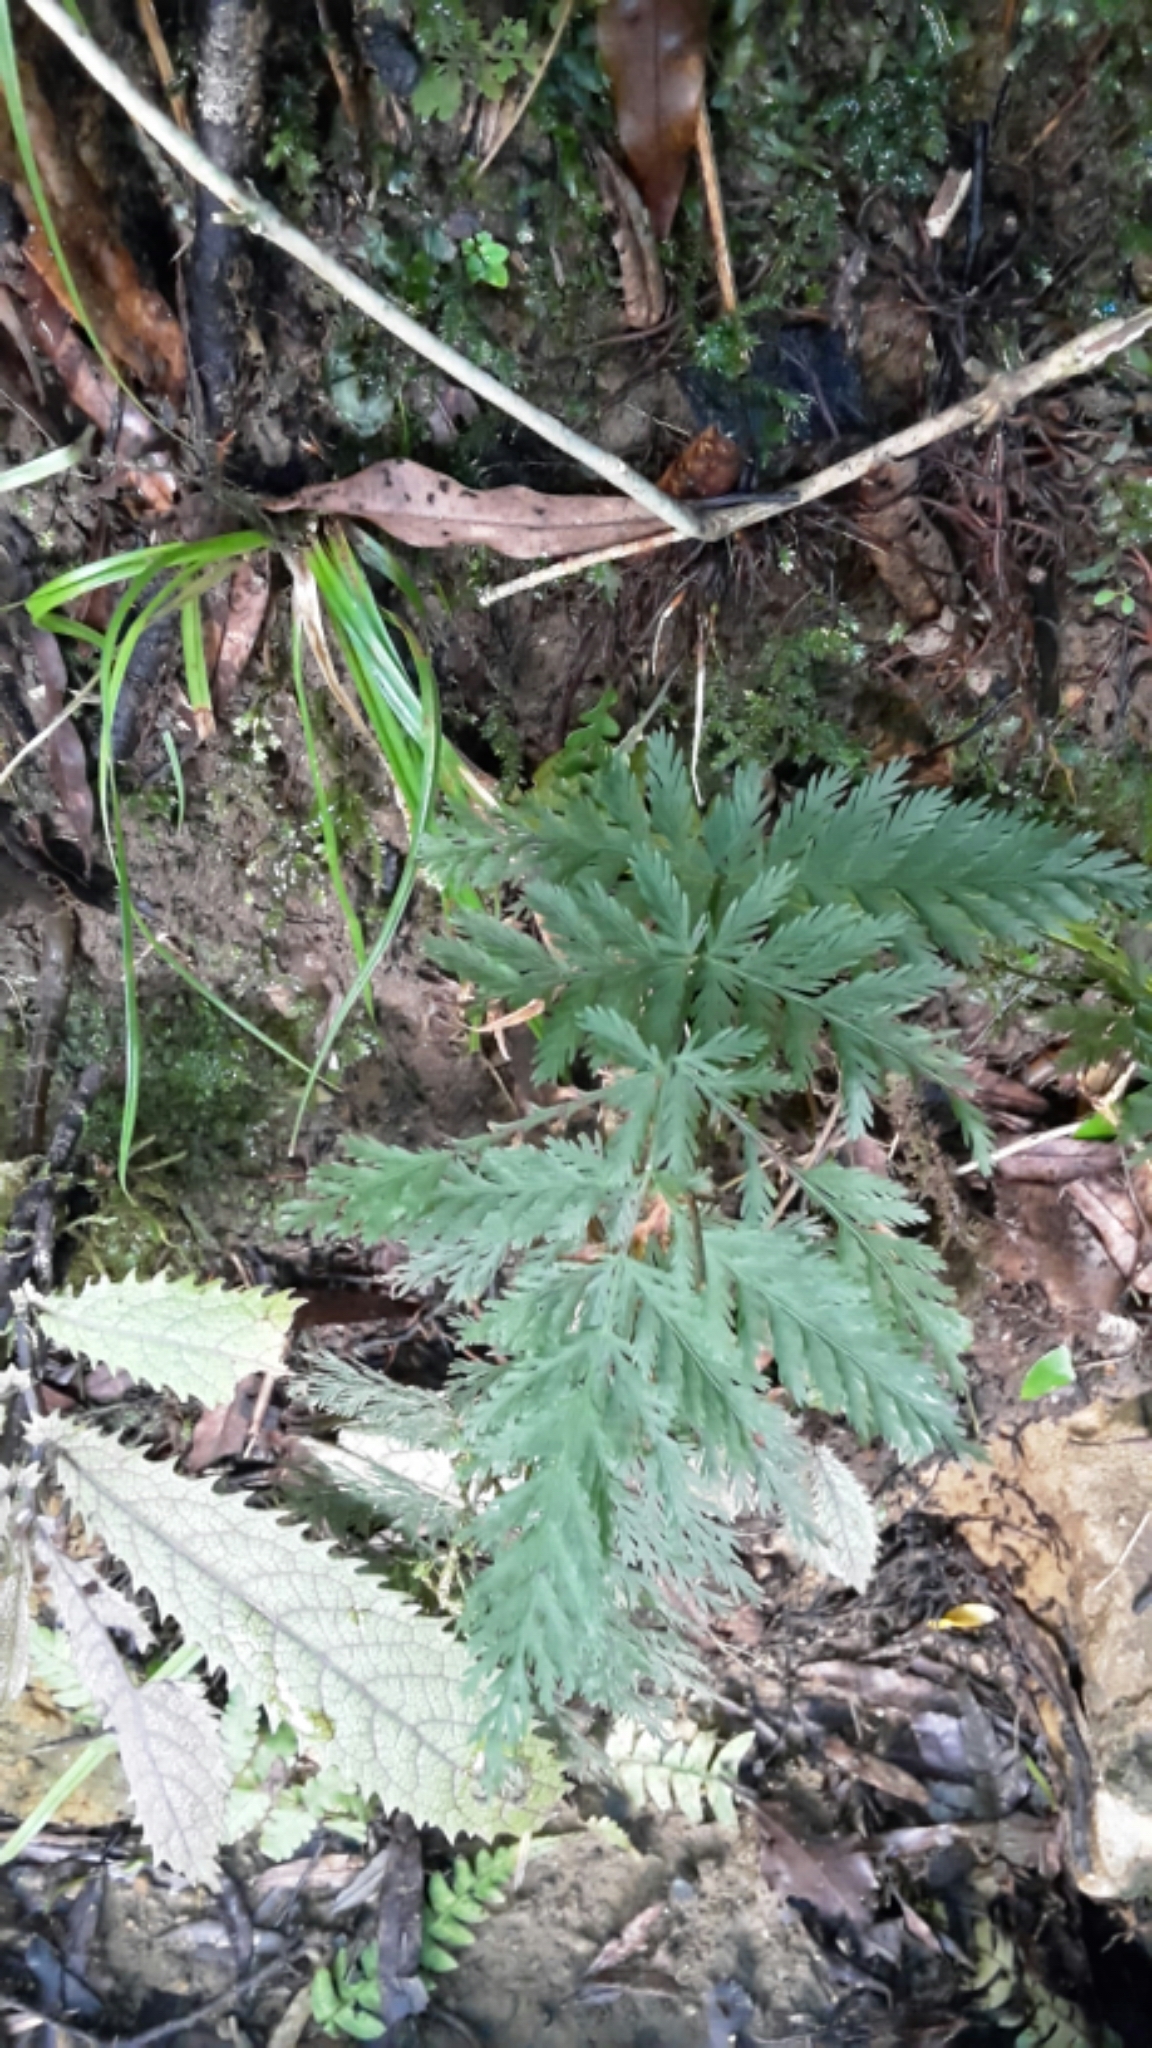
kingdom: Plantae
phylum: Tracheophyta
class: Polypodiopsida
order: Osmundales
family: Osmundaceae
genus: Leptopteris
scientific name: Leptopteris hymenophylloides
